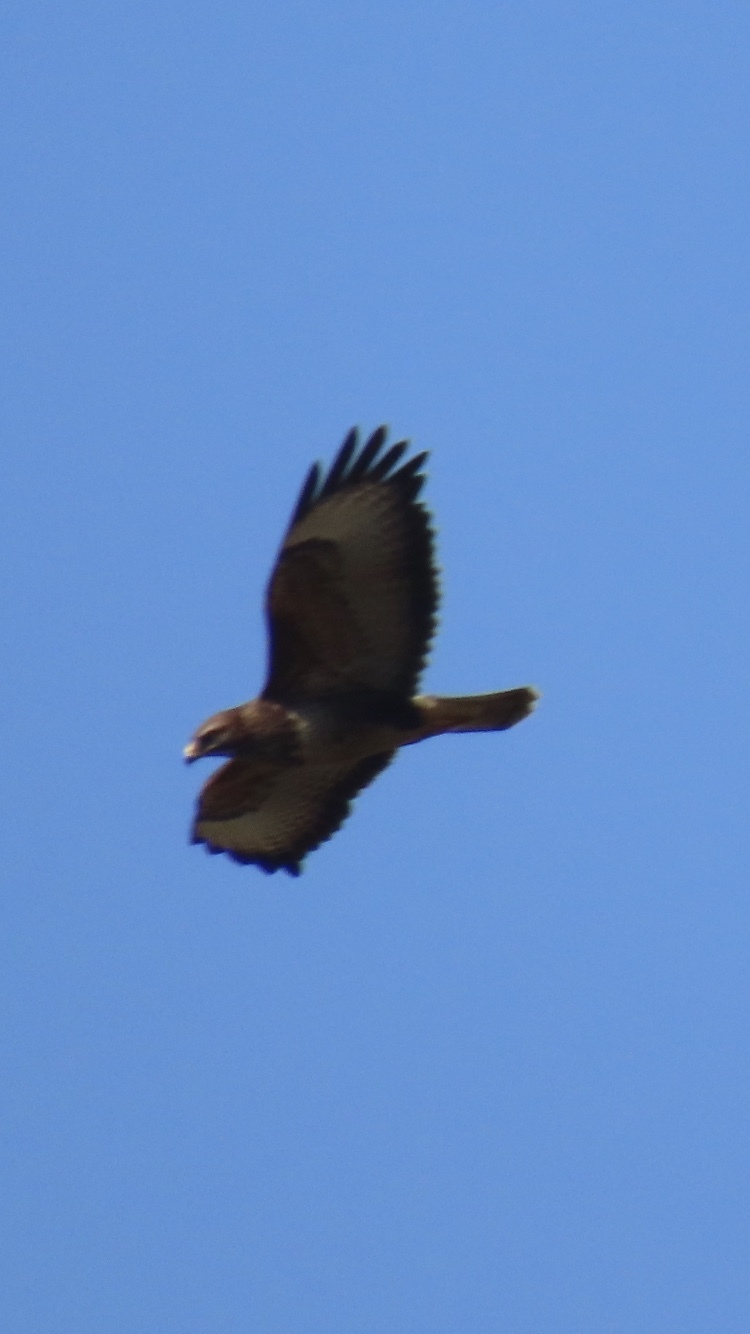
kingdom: Animalia
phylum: Chordata
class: Aves
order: Accipitriformes
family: Accipitridae
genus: Buteo
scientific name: Buteo buteo
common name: Common buzzard
